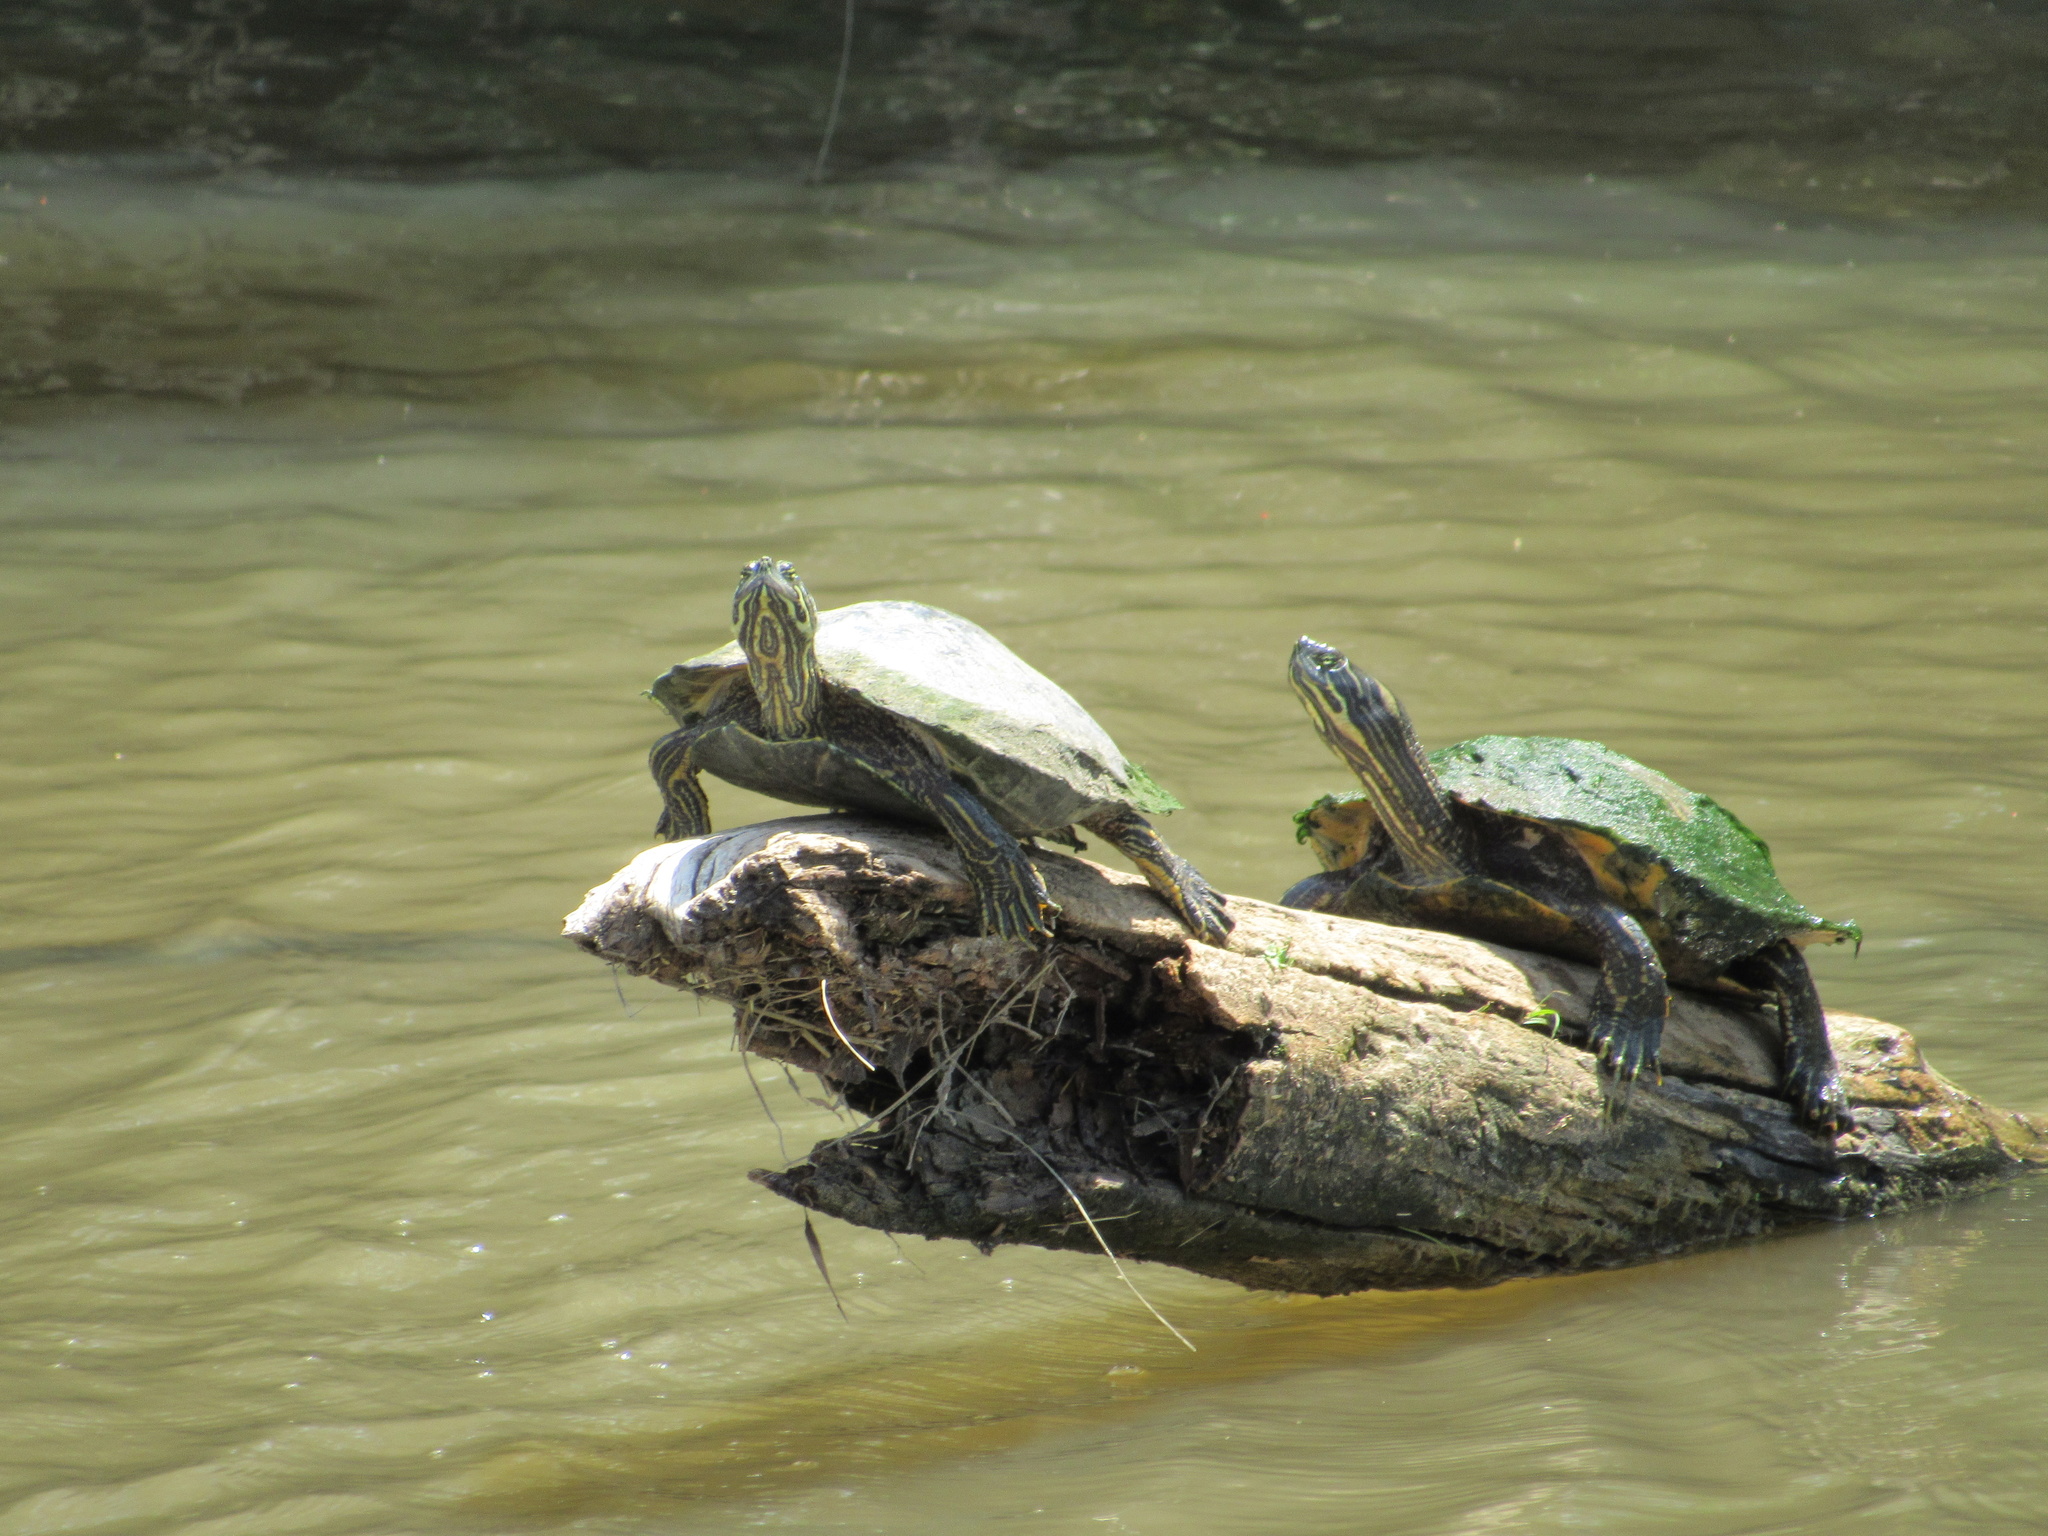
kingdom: Animalia
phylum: Chordata
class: Testudines
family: Emydidae
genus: Pseudemys
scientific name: Pseudemys concinna
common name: Eastern river cooter
